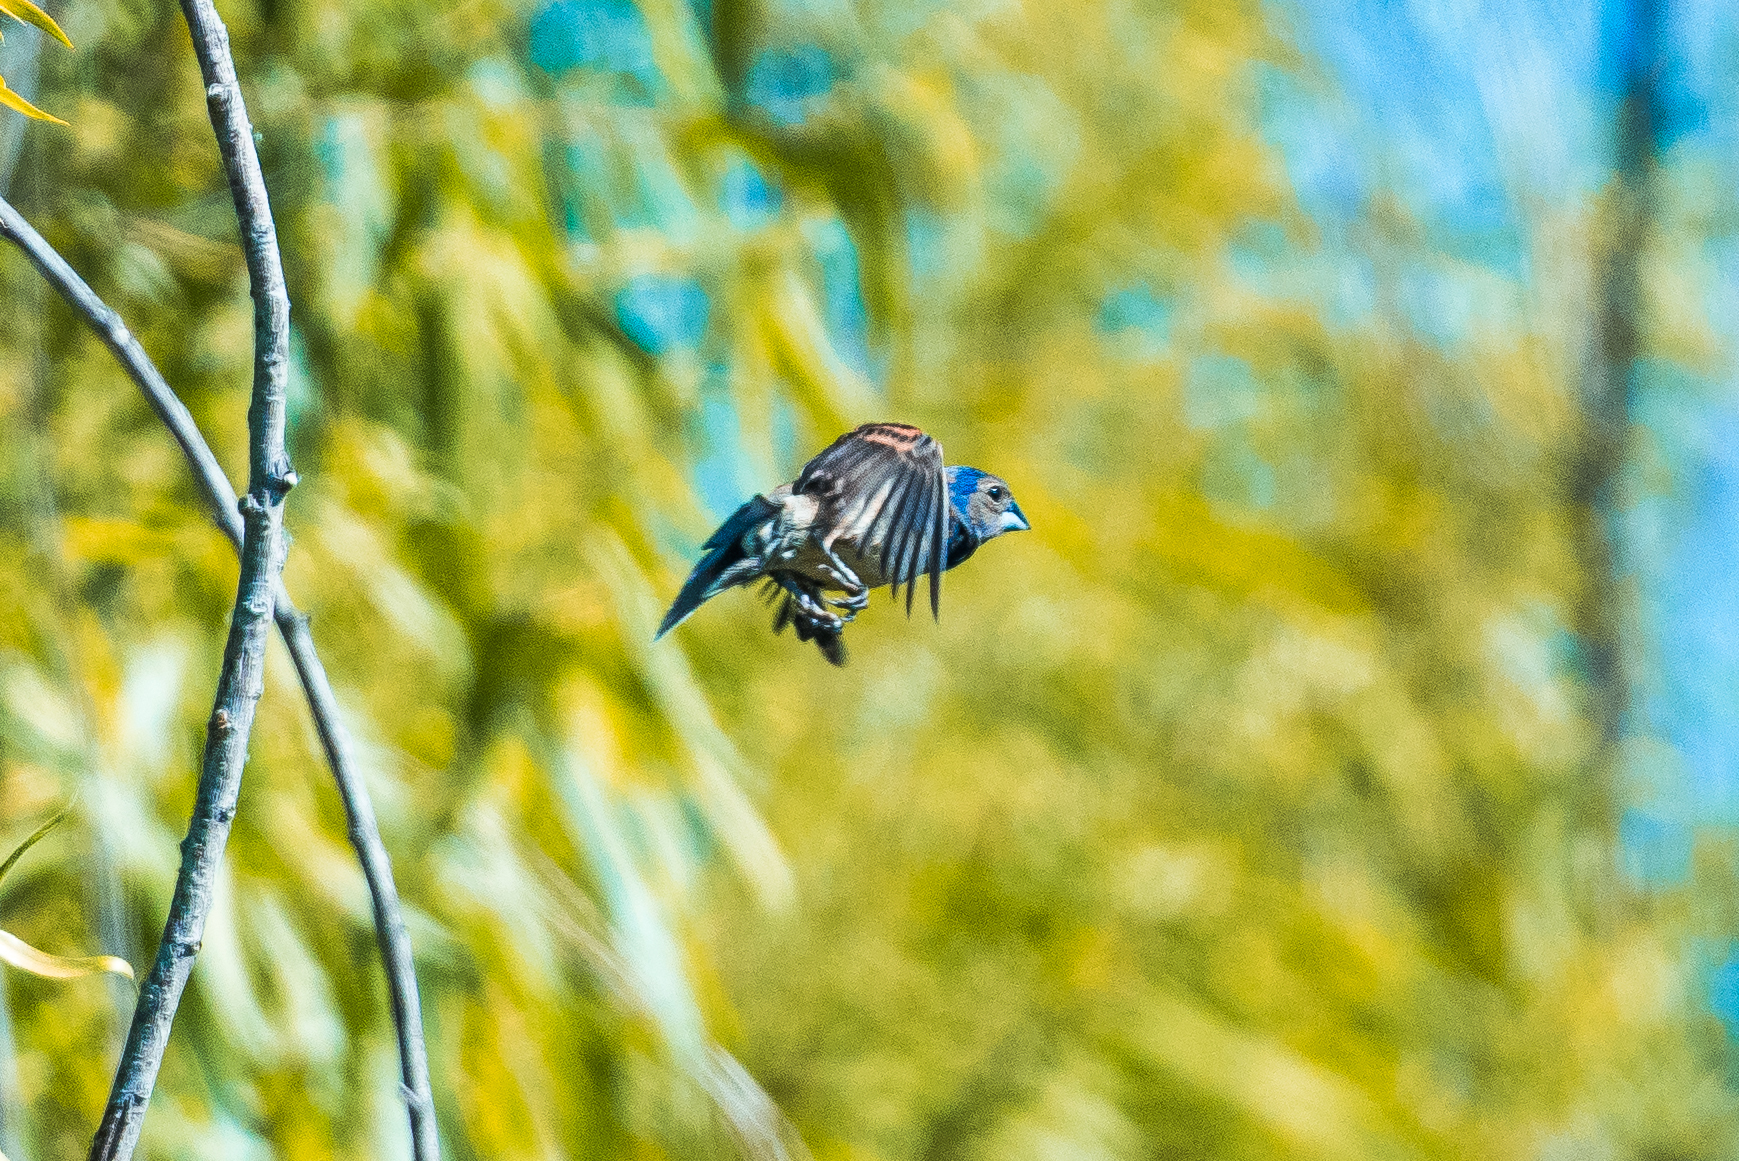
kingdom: Animalia
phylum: Chordata
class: Aves
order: Passeriformes
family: Cardinalidae
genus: Passerina
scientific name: Passerina caerulea
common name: Blue grosbeak
